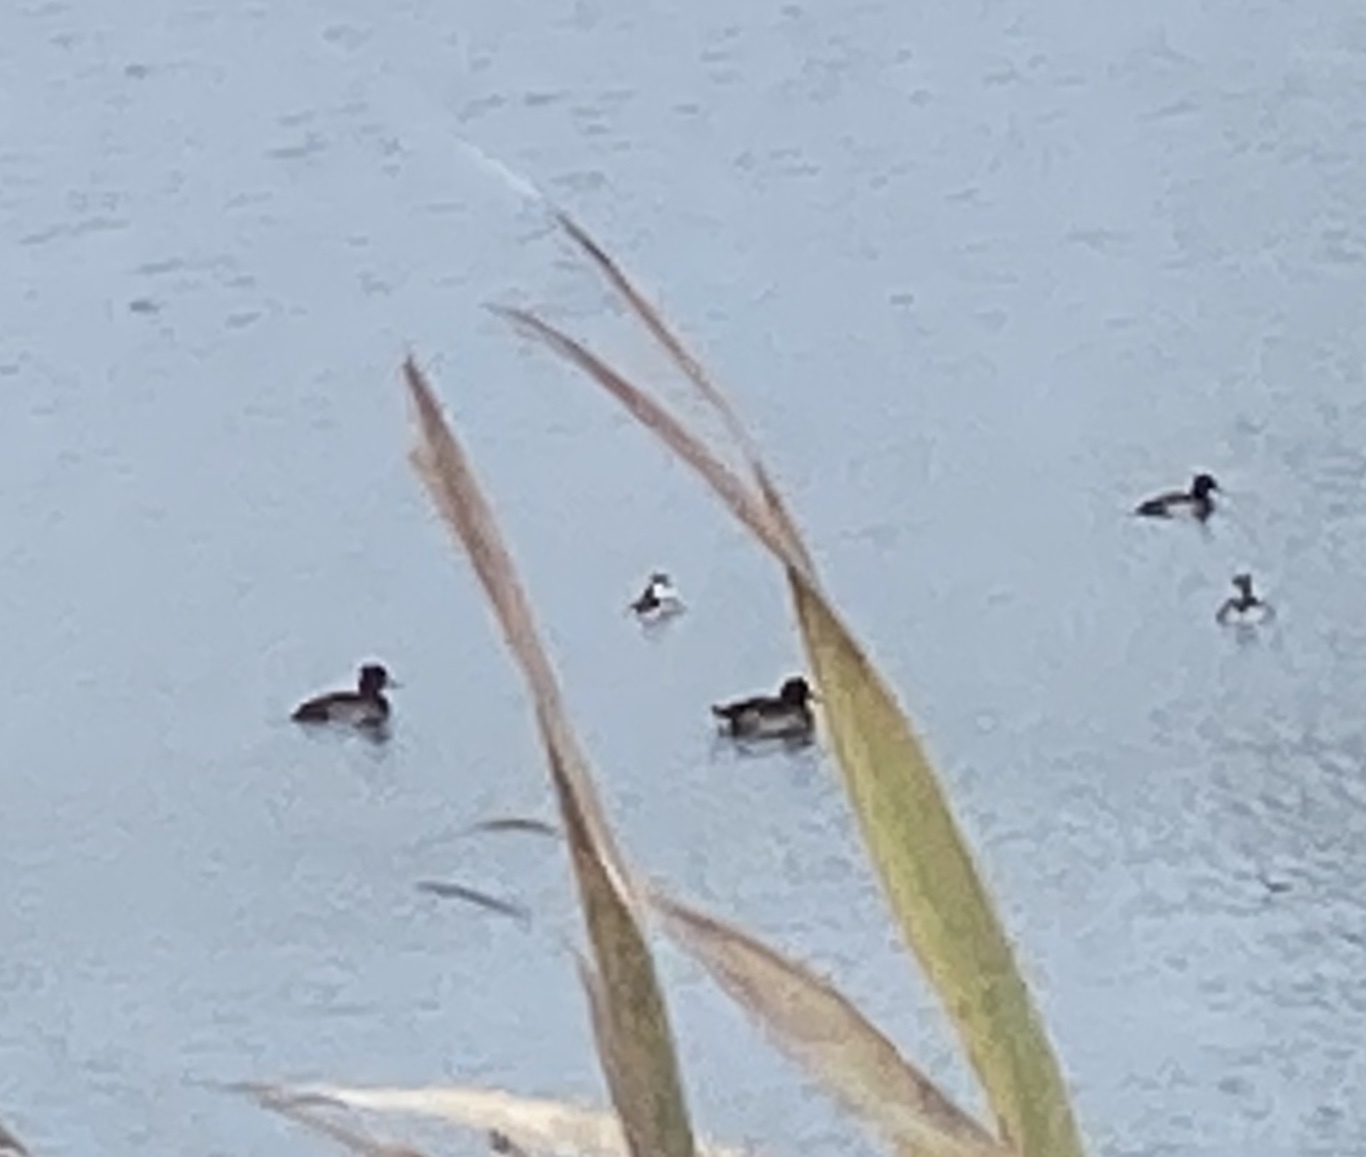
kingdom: Animalia
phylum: Chordata
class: Aves
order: Anseriformes
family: Anatidae
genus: Aythya
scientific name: Aythya fuligula
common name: Tufted duck
